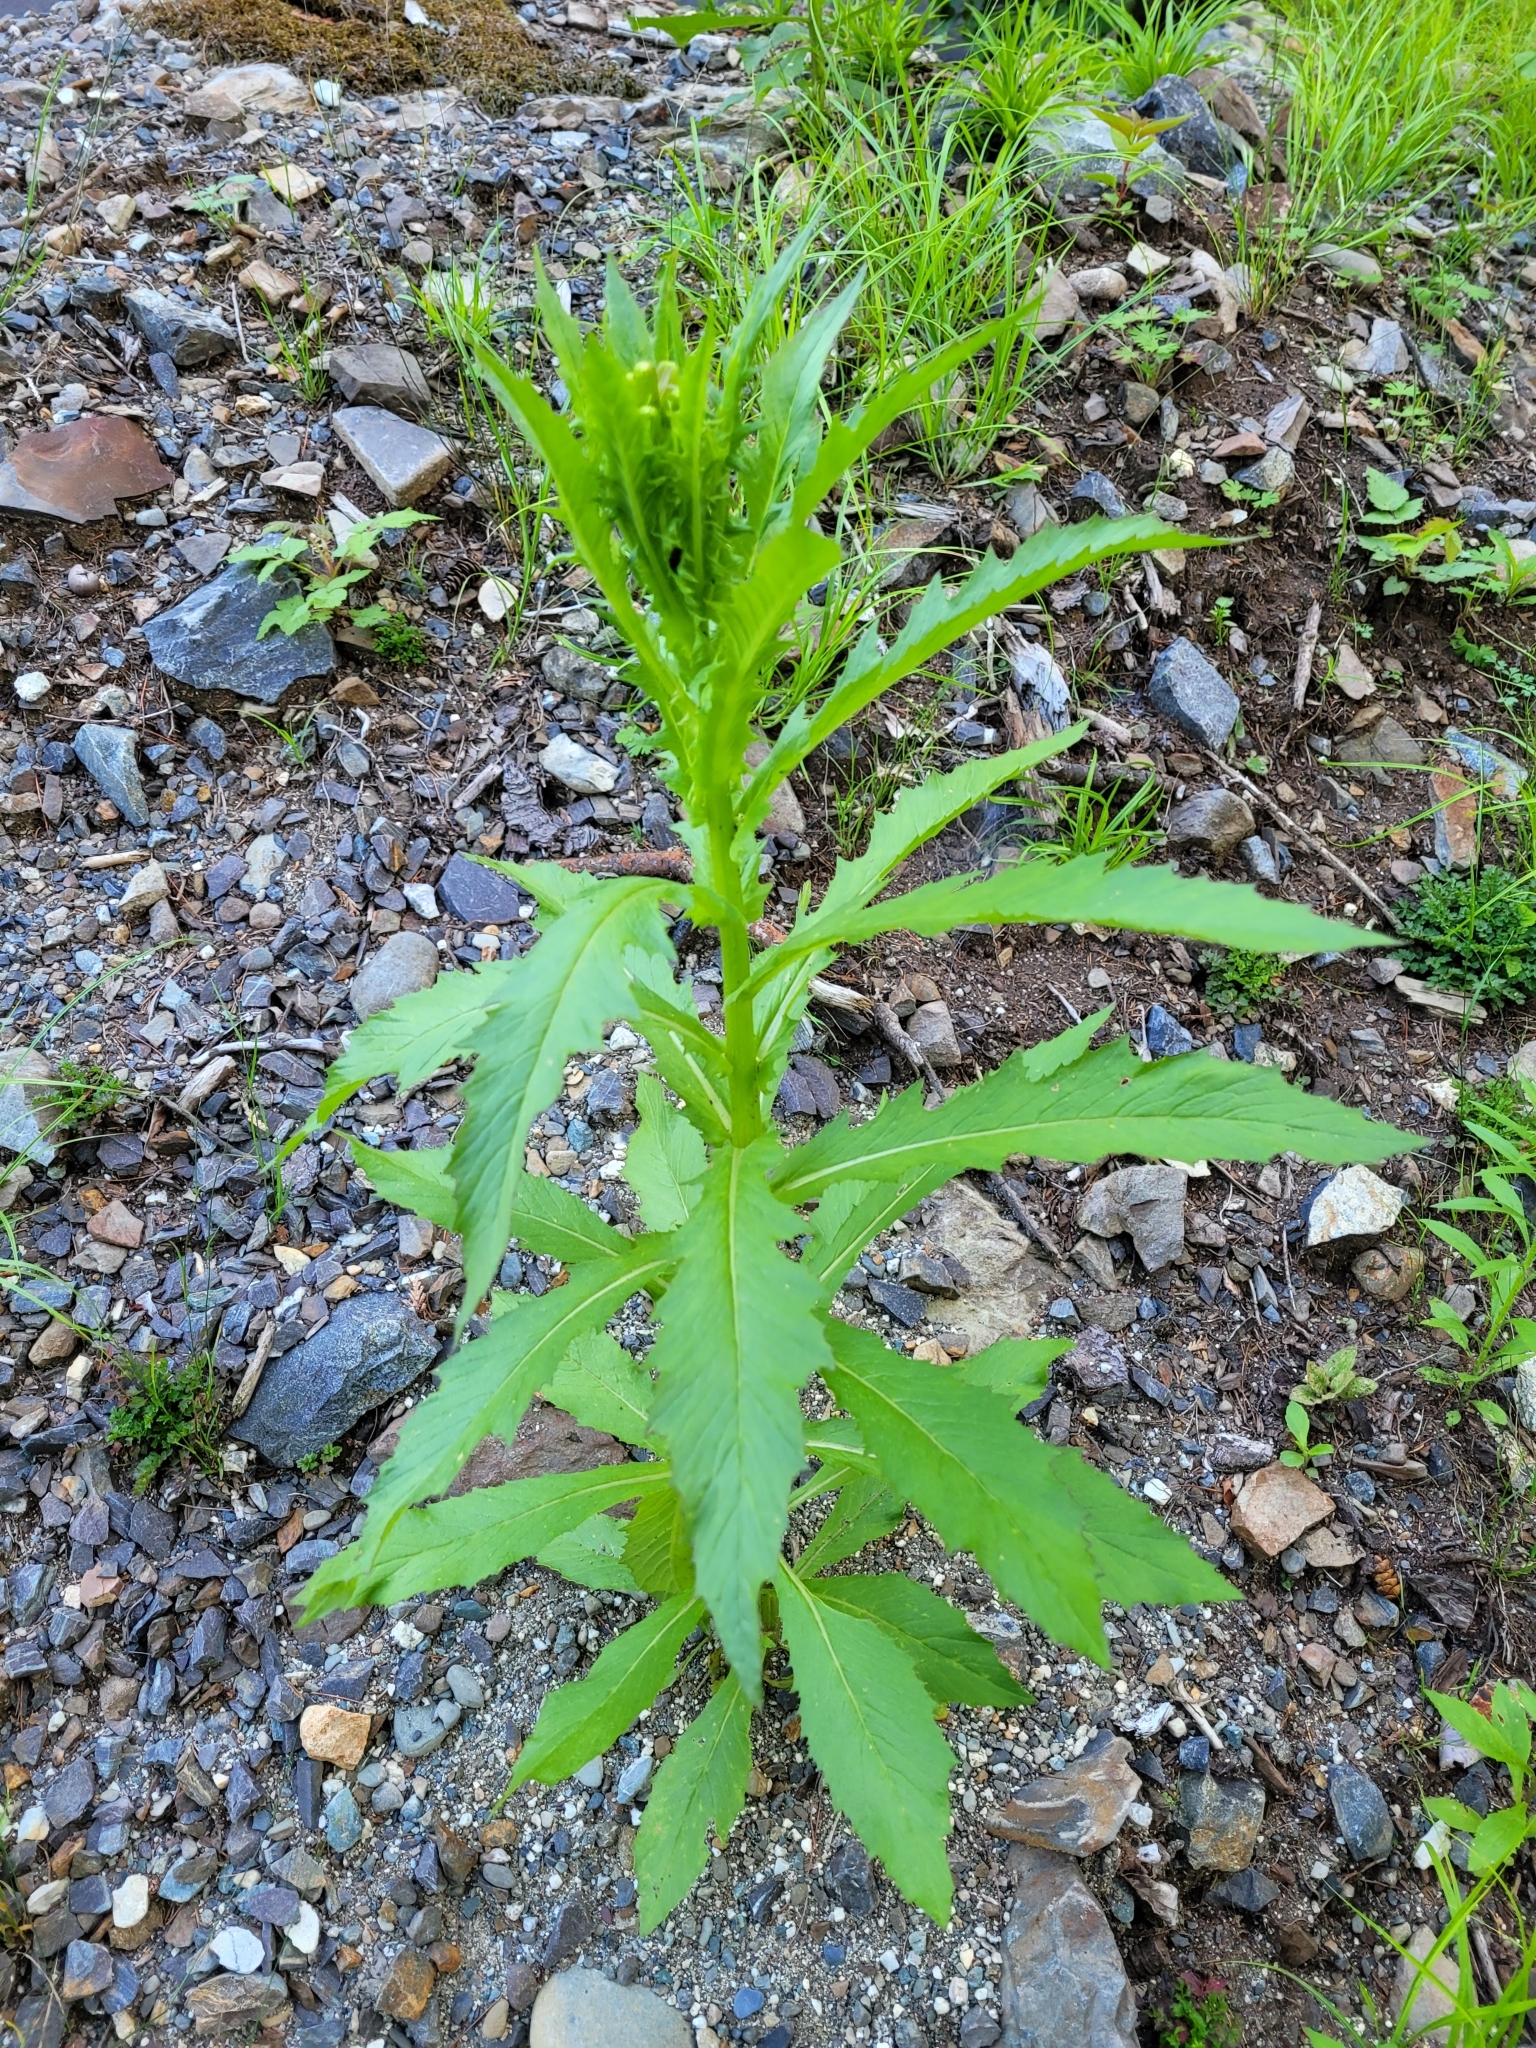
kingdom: Plantae
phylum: Tracheophyta
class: Magnoliopsida
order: Asterales
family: Asteraceae
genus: Erechtites
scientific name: Erechtites hieraciifolius
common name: American burnweed
